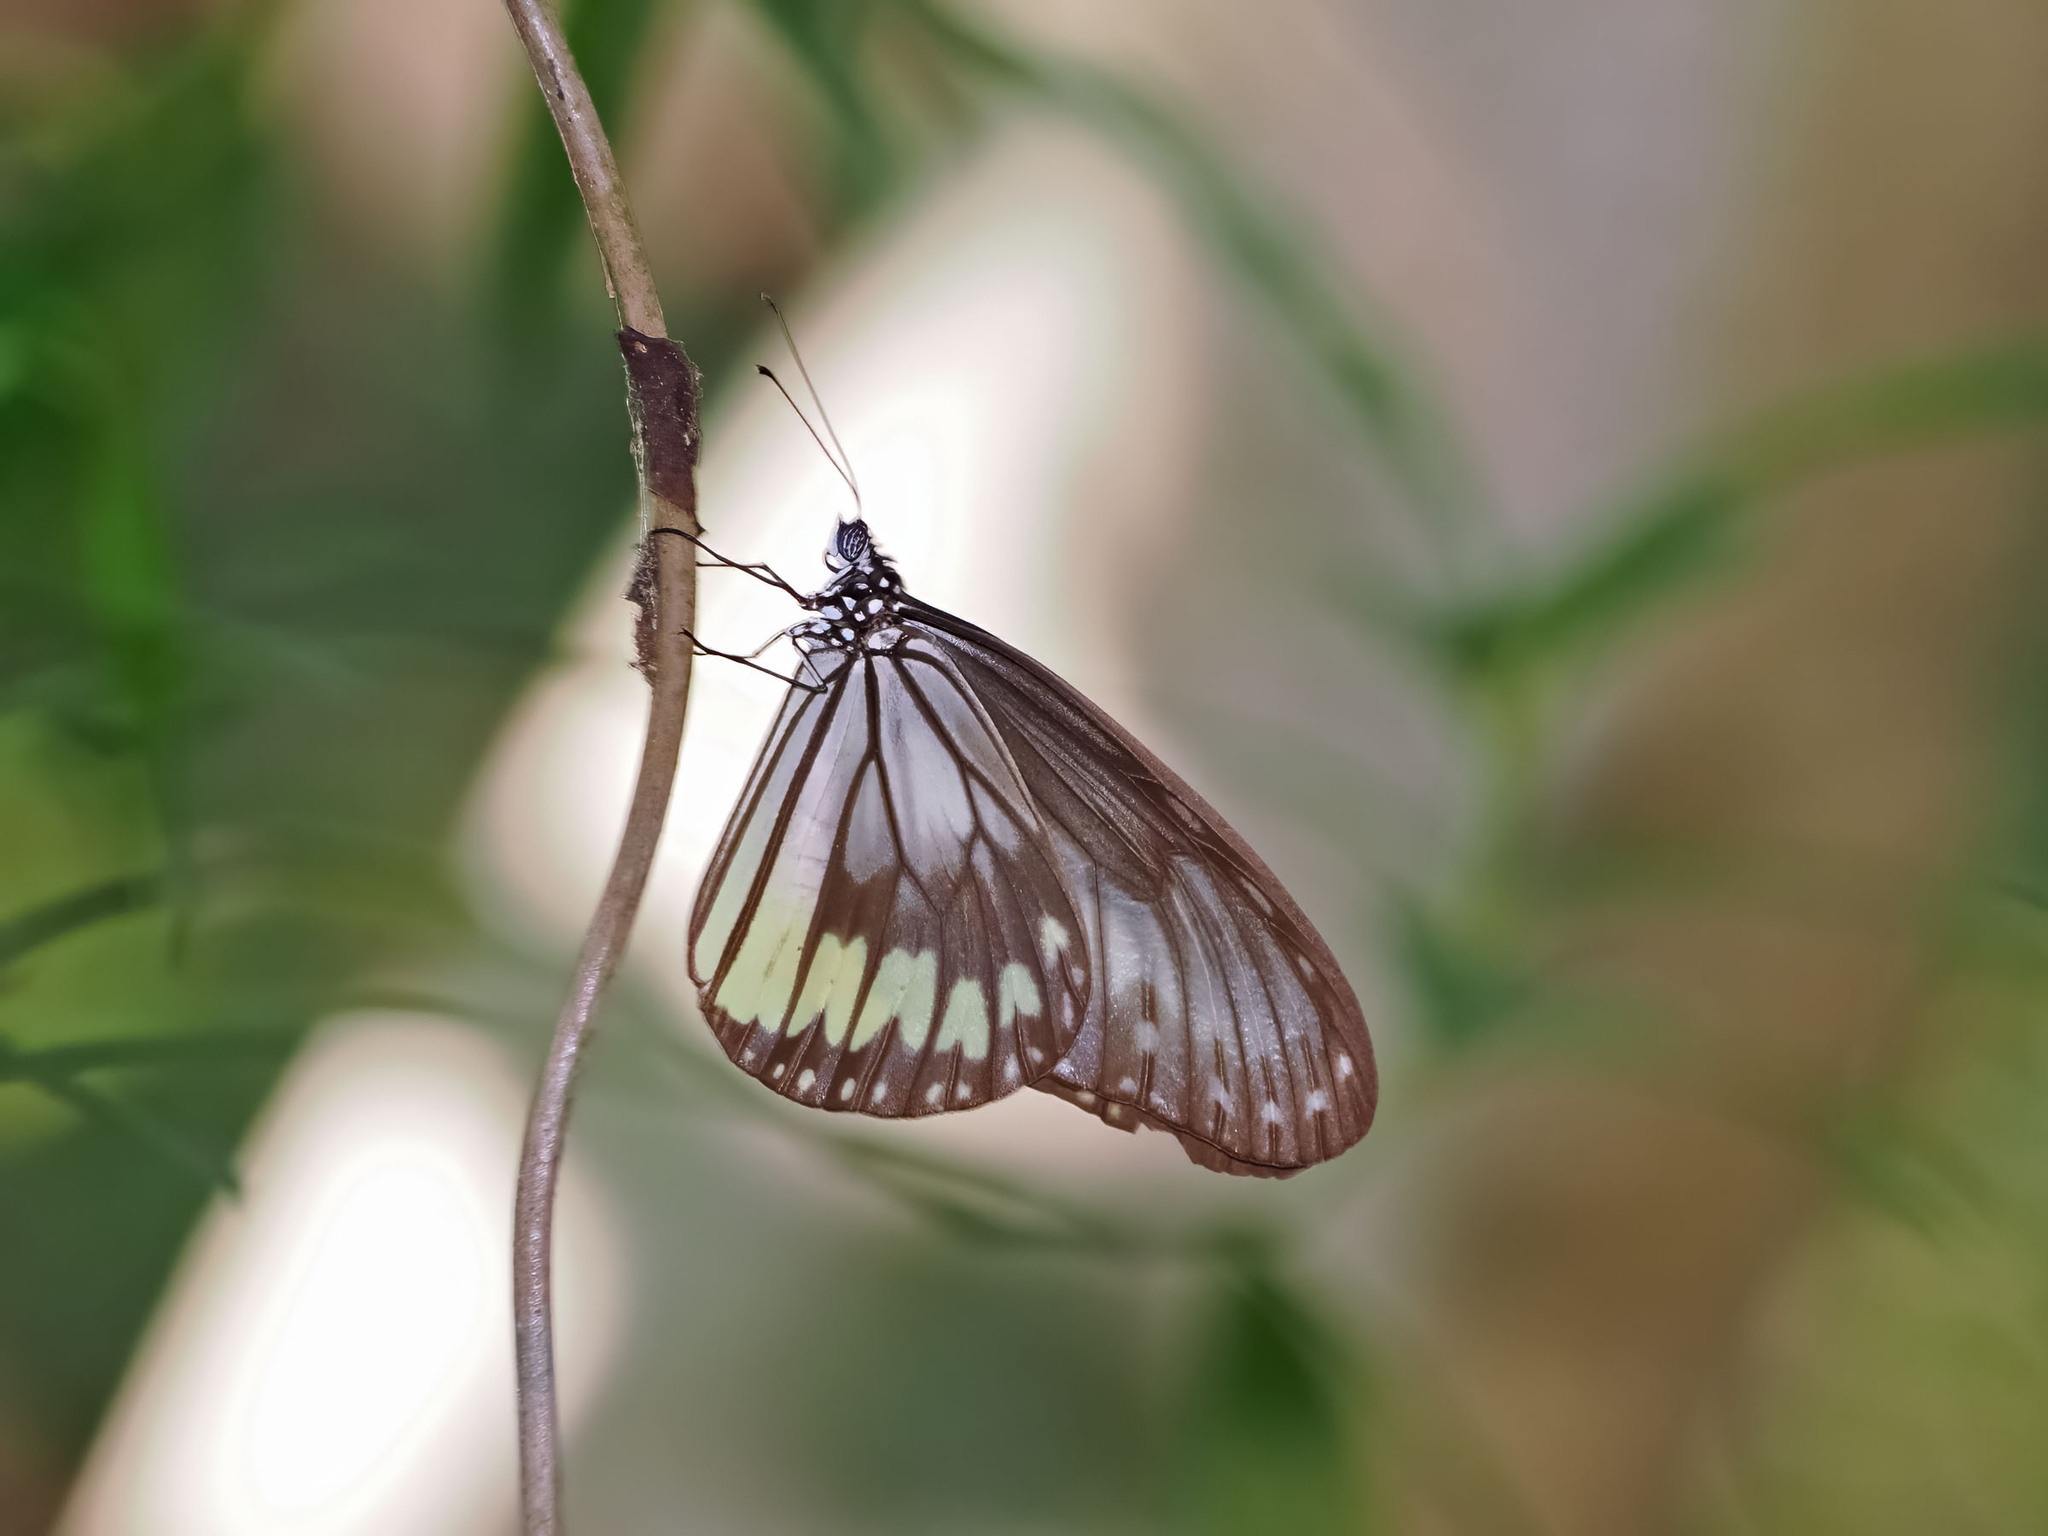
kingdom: Animalia
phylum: Arthropoda
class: Insecta
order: Lepidoptera
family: Nymphalidae
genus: Ideopsis
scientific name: Ideopsis vitrea
